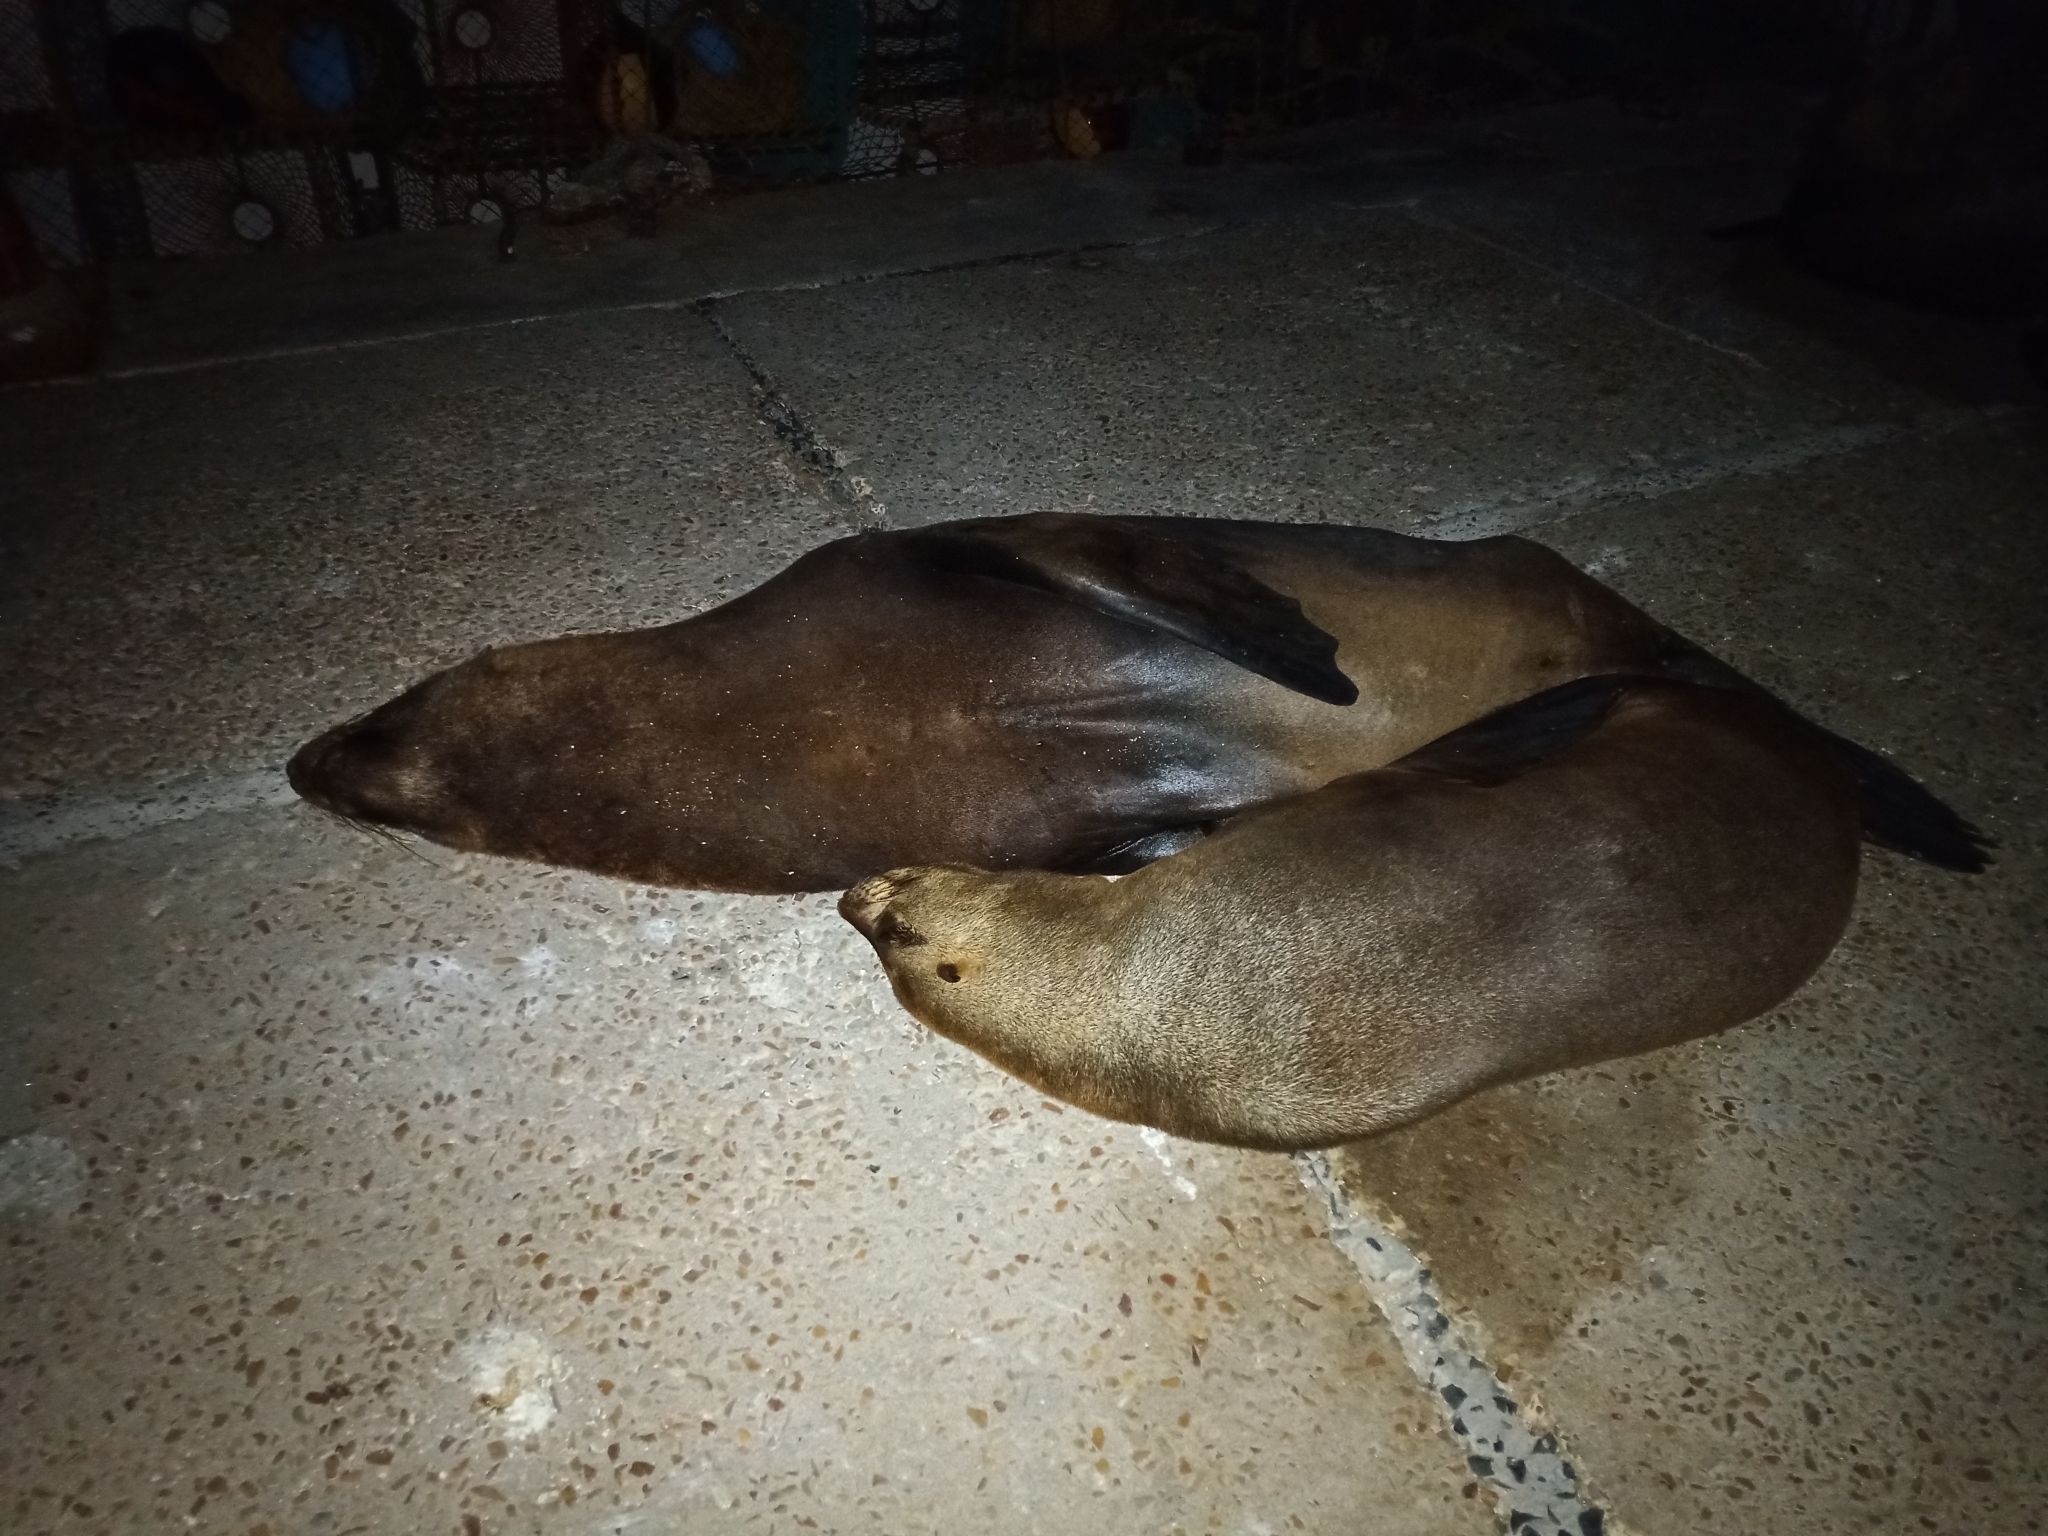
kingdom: Animalia
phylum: Chordata
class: Mammalia
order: Carnivora
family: Otariidae
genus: Arctocephalus
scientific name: Arctocephalus pusillus
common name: Brown fur seal
